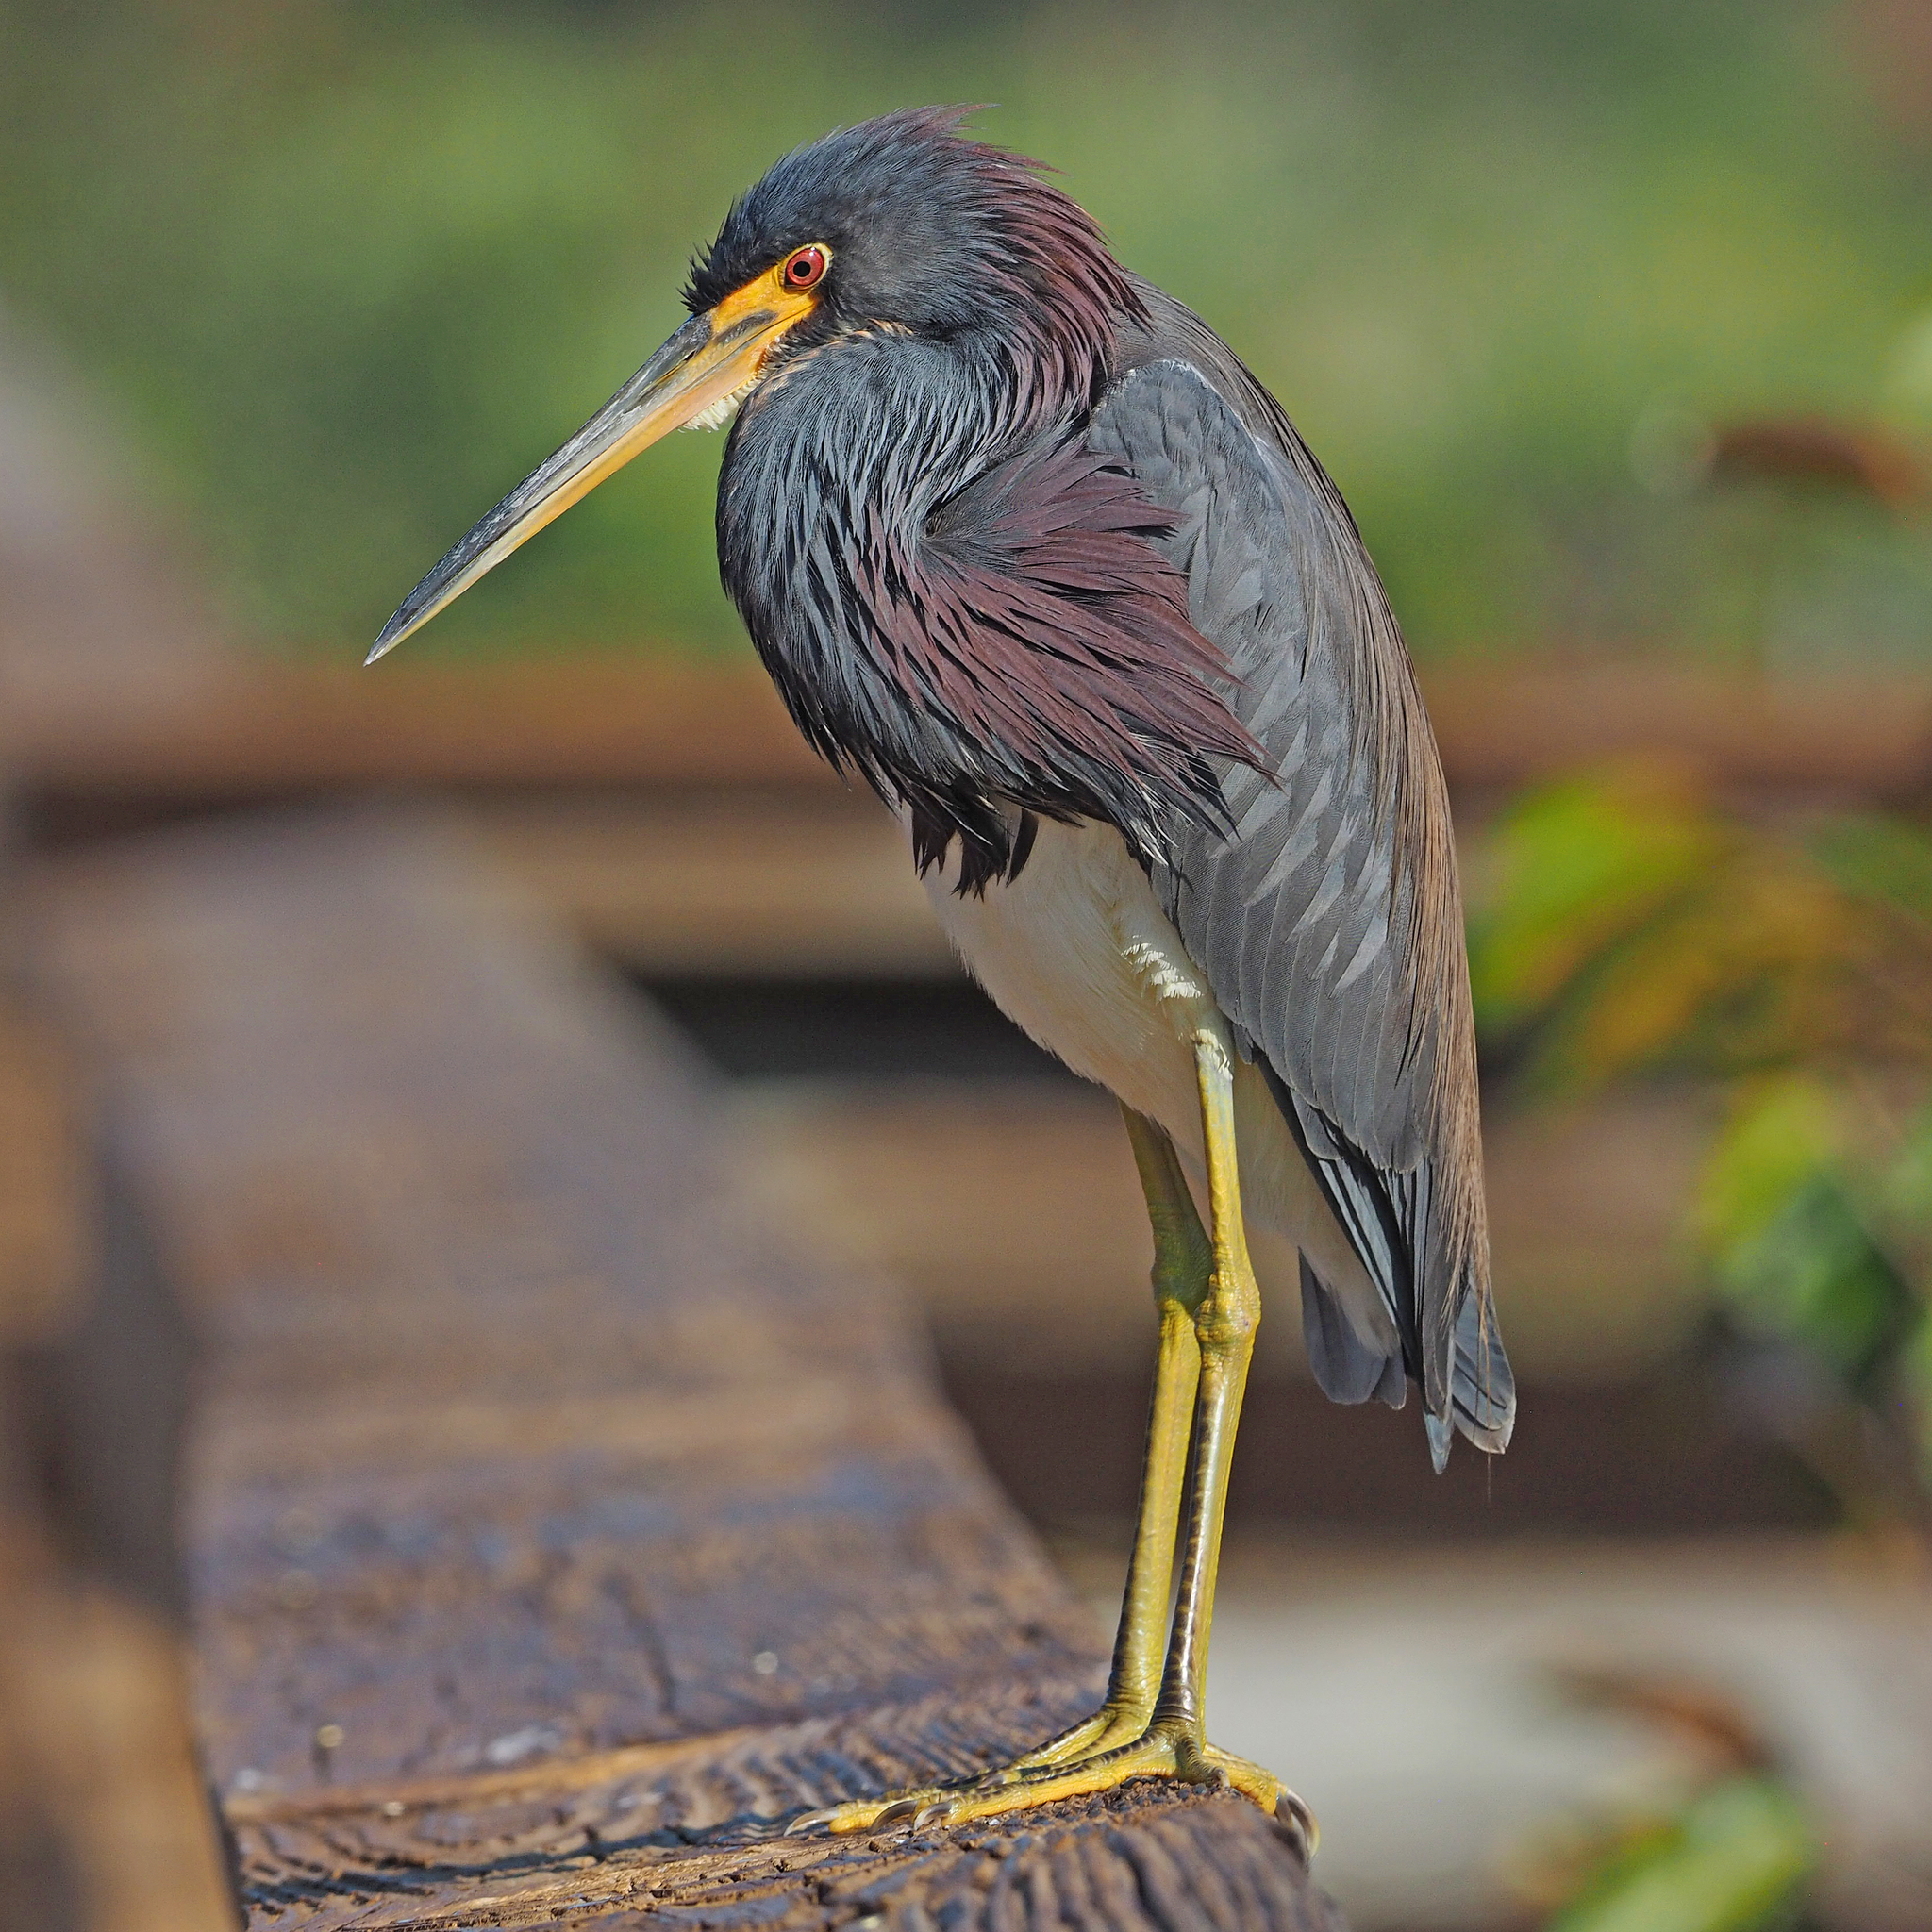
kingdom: Animalia
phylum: Chordata
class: Aves
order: Pelecaniformes
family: Ardeidae
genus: Egretta
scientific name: Egretta tricolor
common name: Tricolored heron
